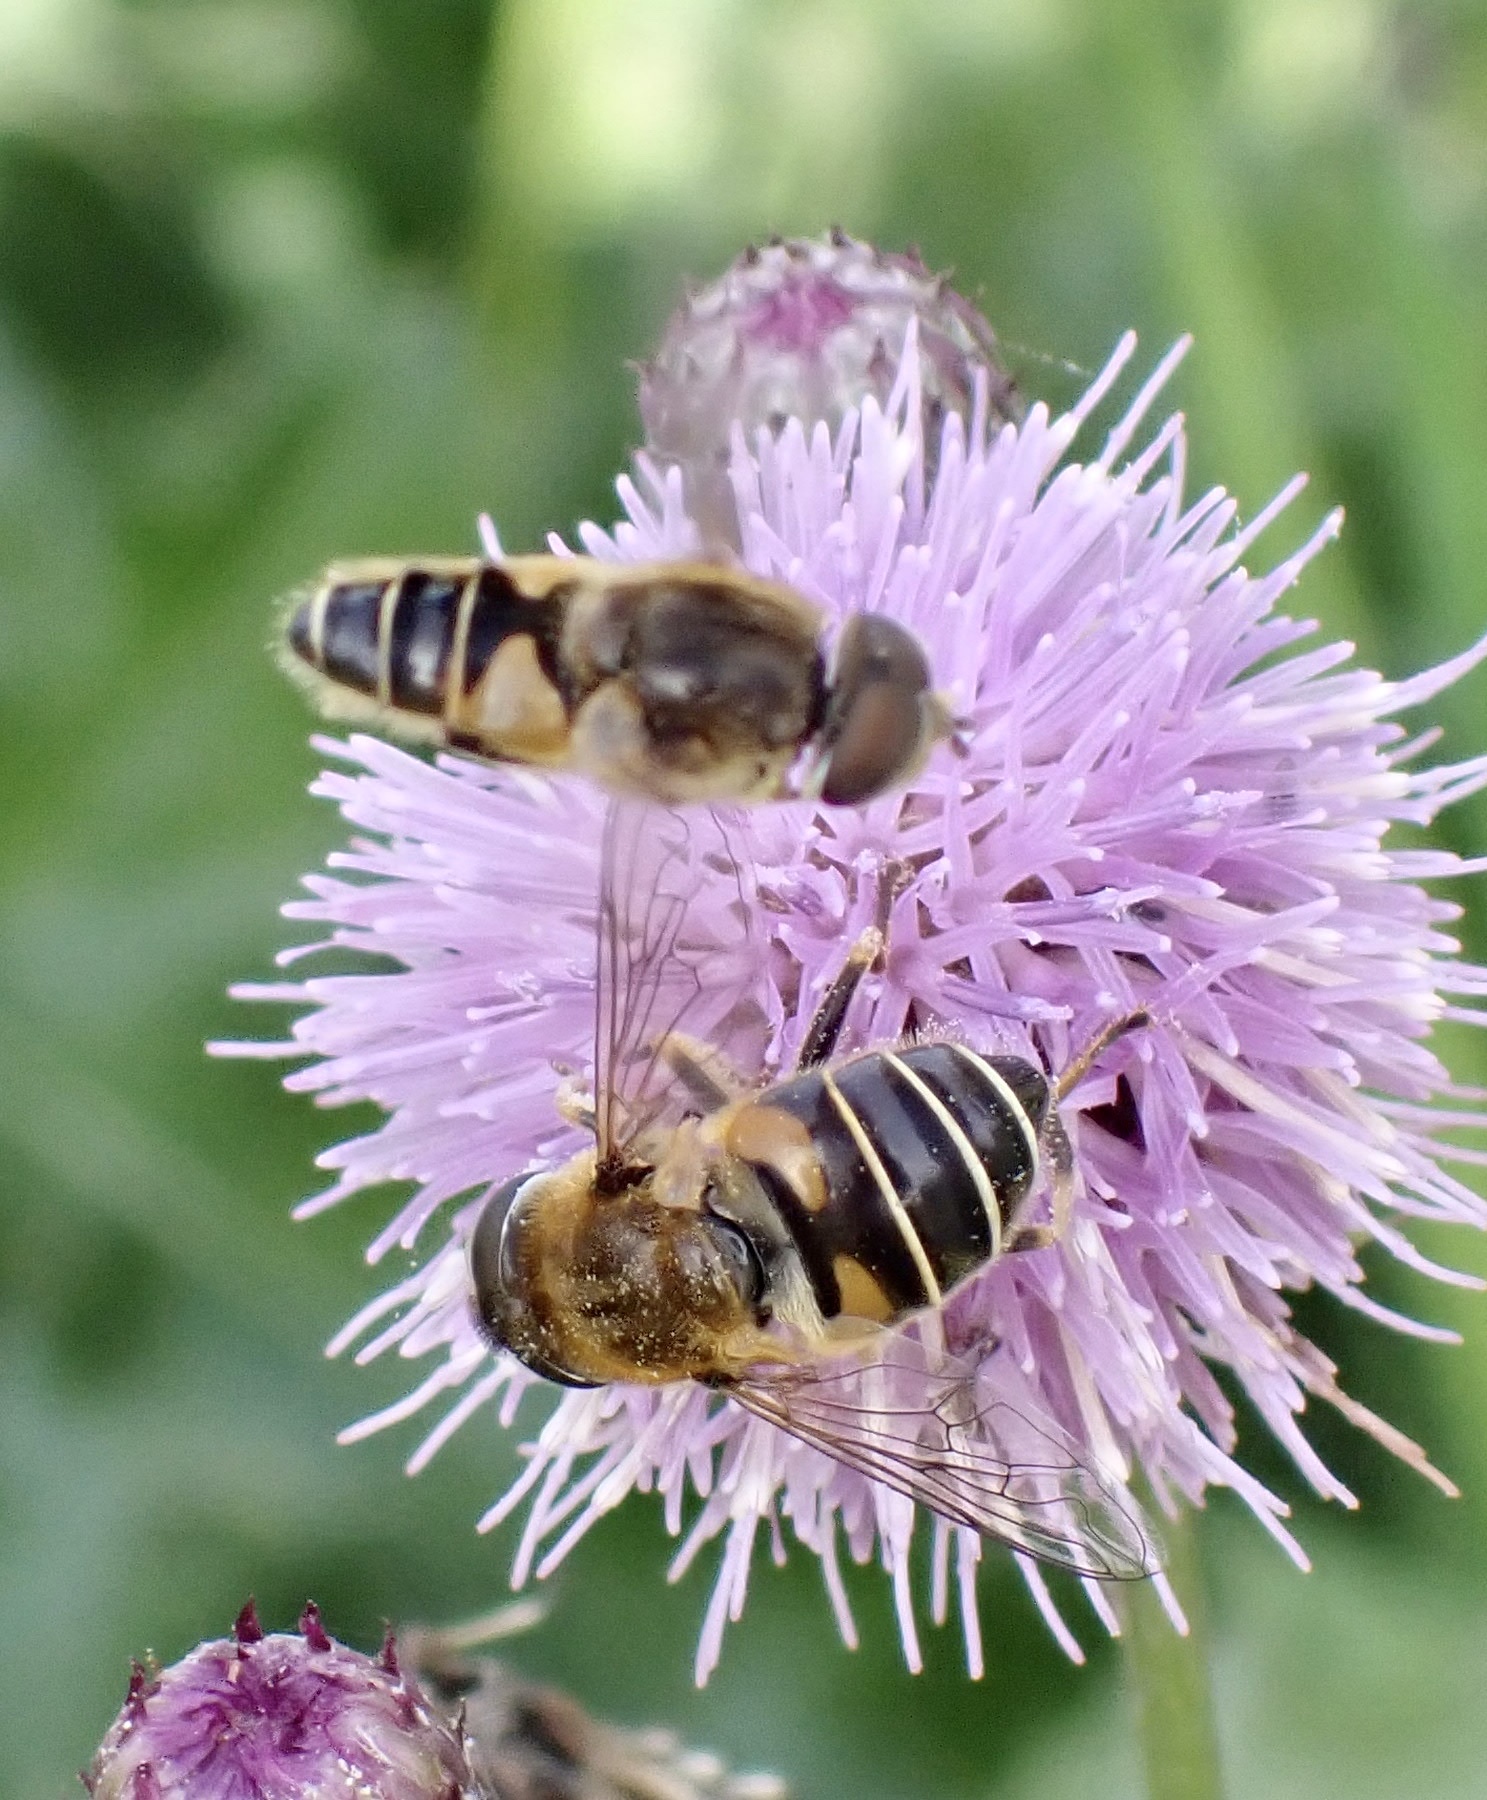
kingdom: Animalia
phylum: Arthropoda
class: Insecta
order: Diptera
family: Syrphidae
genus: Eristalis
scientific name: Eristalis nemorum
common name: Orange-spined drone fly
